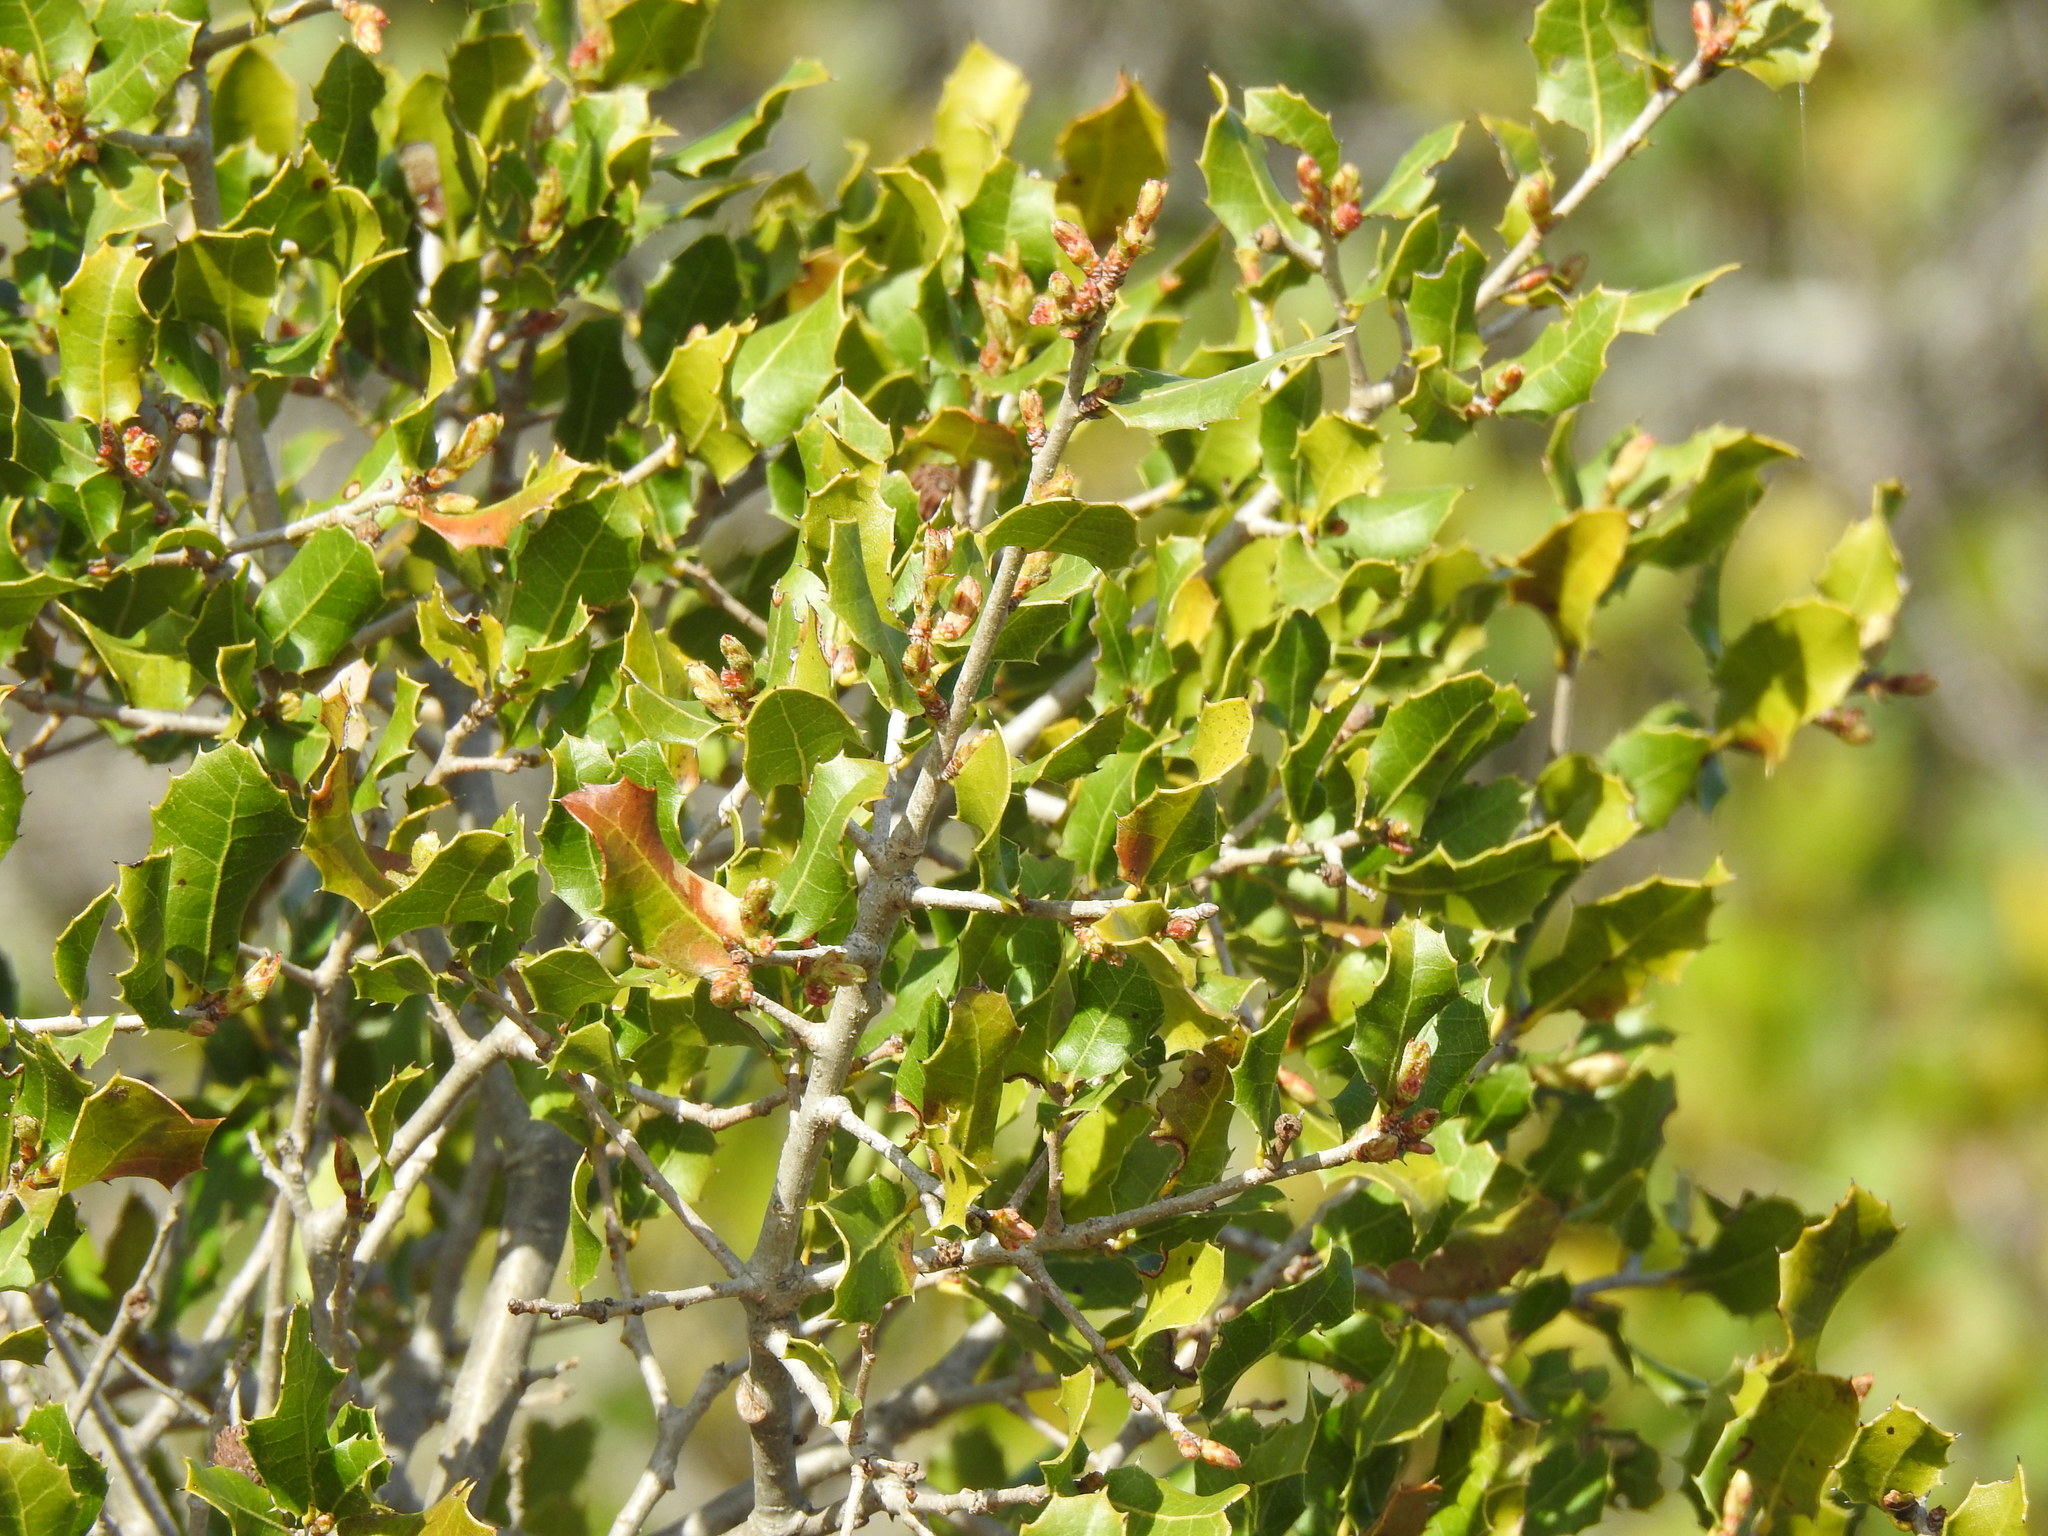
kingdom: Plantae
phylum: Tracheophyta
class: Magnoliopsida
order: Fagales
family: Fagaceae
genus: Quercus
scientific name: Quercus coccifera
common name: Kermes oak
